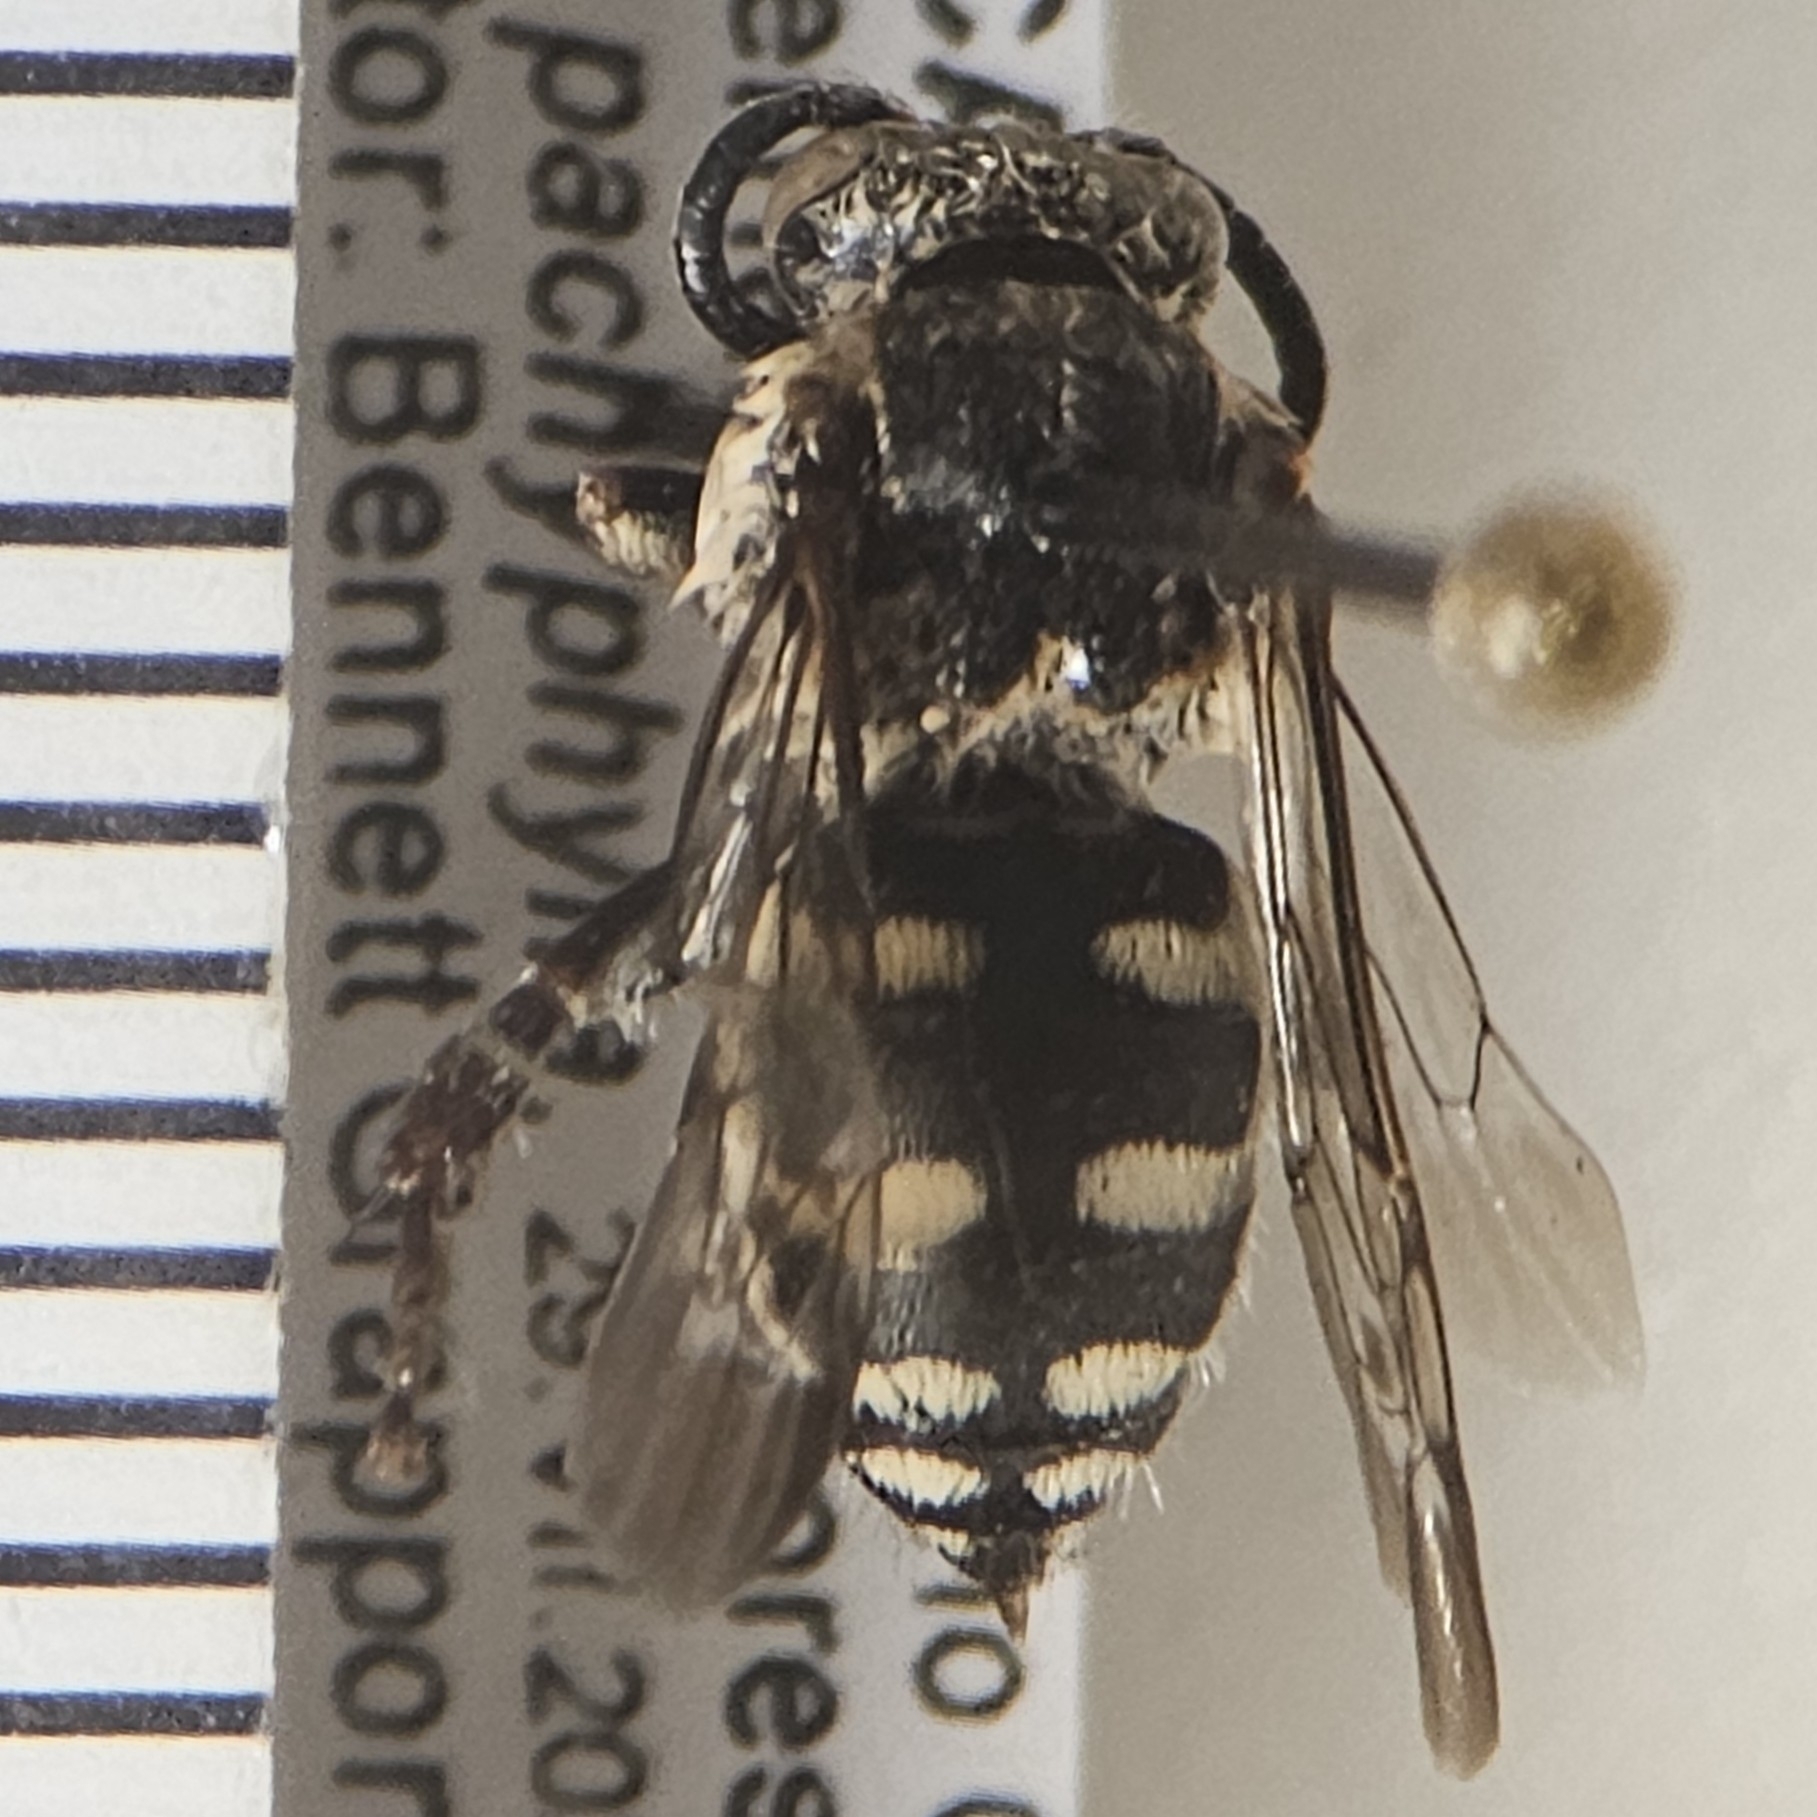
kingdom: Animalia
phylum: Arthropoda
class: Insecta
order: Hymenoptera
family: Apidae
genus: Brachymelecta
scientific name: Brachymelecta californica
